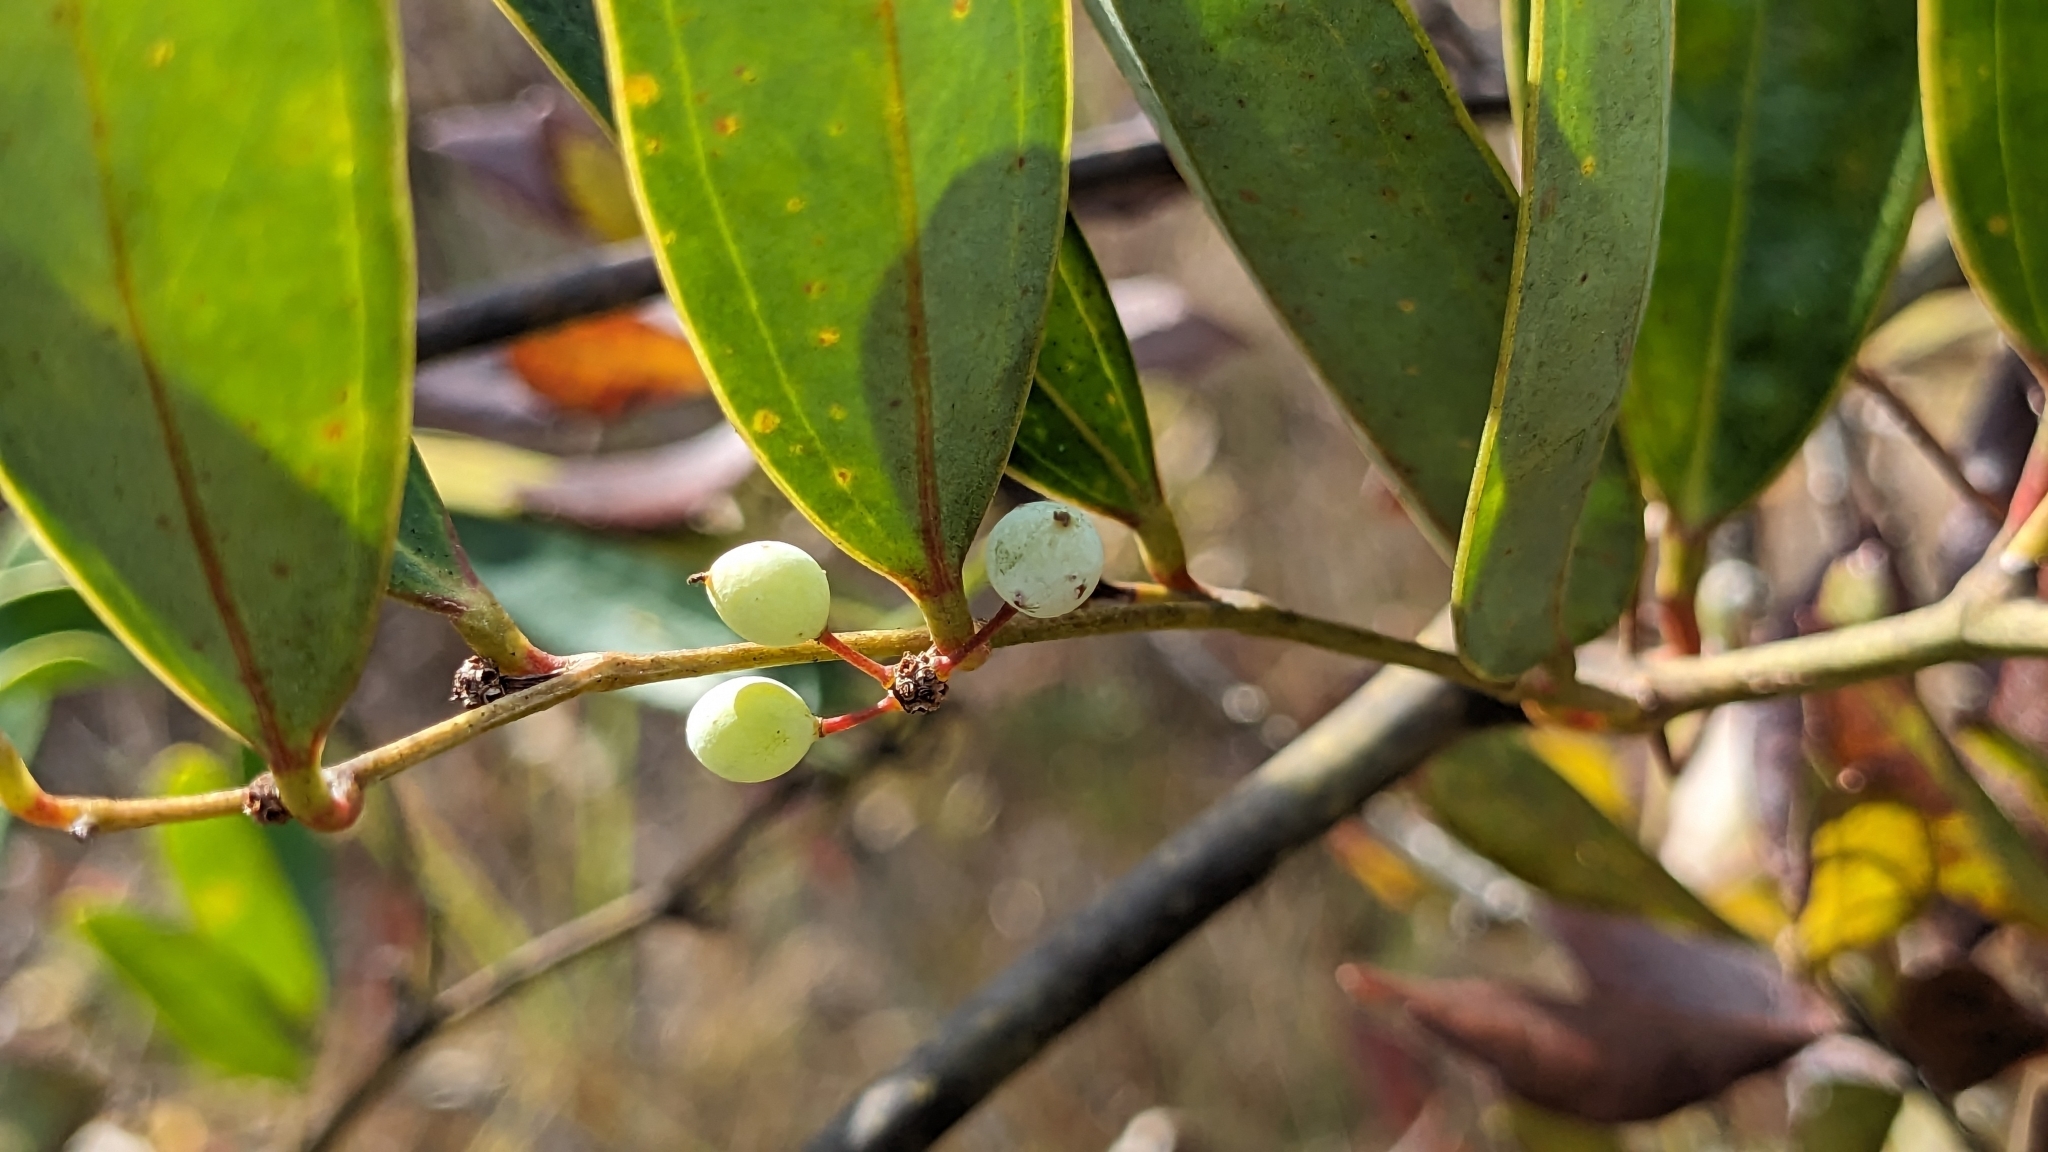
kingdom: Plantae
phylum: Tracheophyta
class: Liliopsida
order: Liliales
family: Smilacaceae
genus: Smilax
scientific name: Smilax laurifolia
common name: Bamboovine
